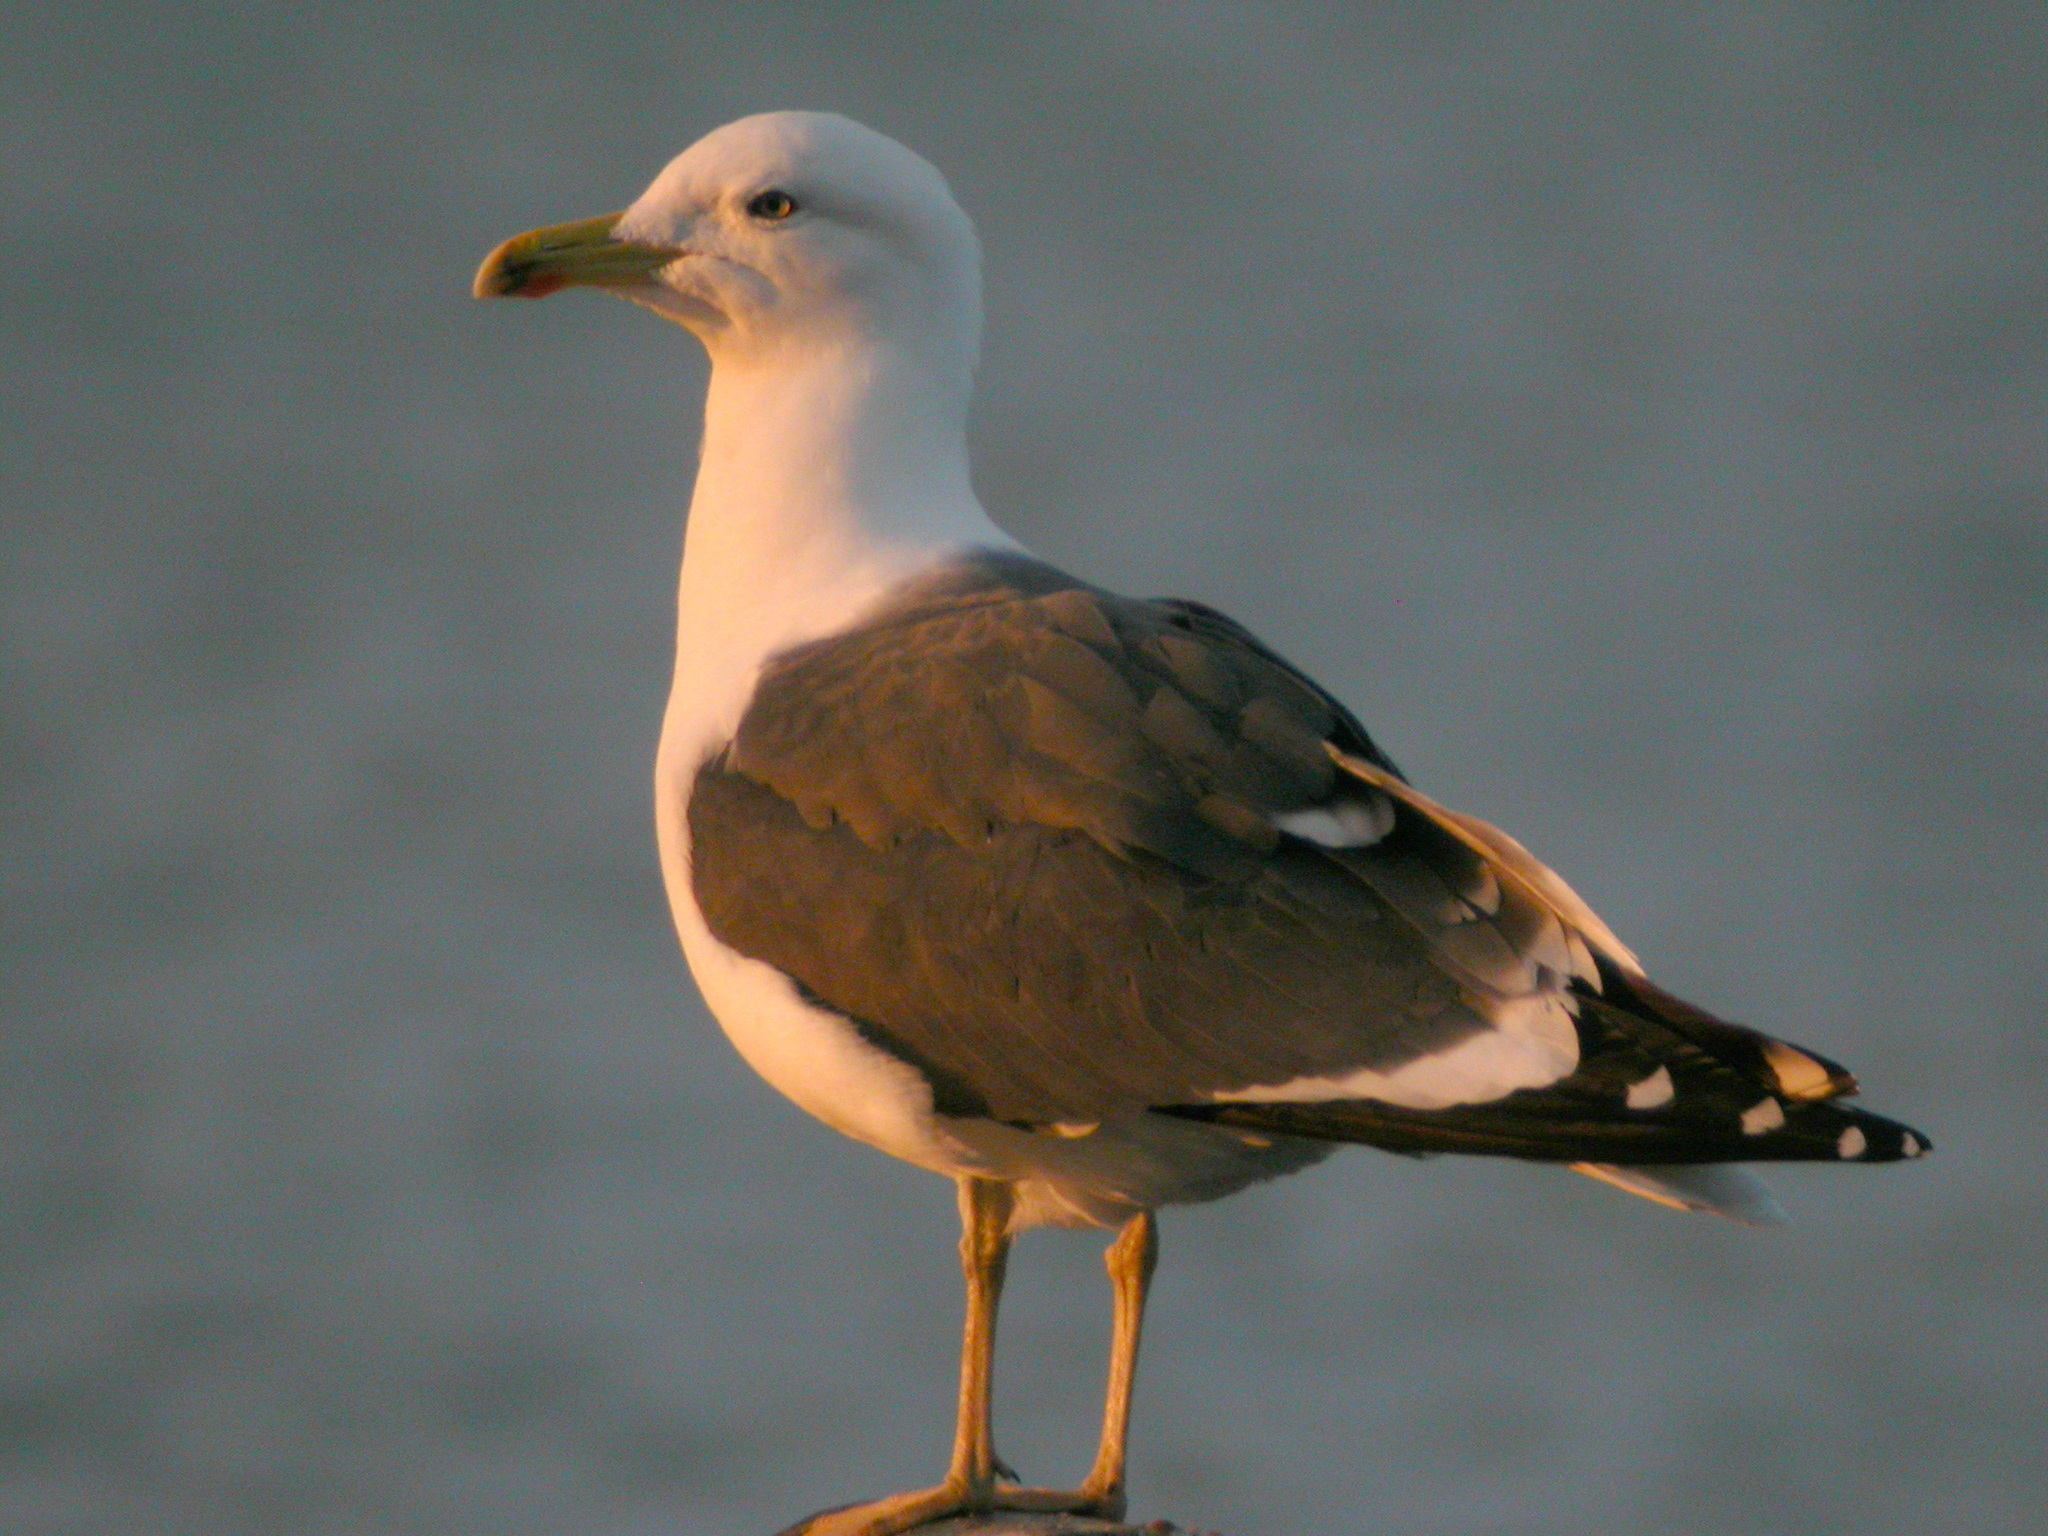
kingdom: Animalia
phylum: Chordata
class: Aves
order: Charadriiformes
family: Laridae
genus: Larus
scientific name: Larus fuscus
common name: Lesser black-backed gull
